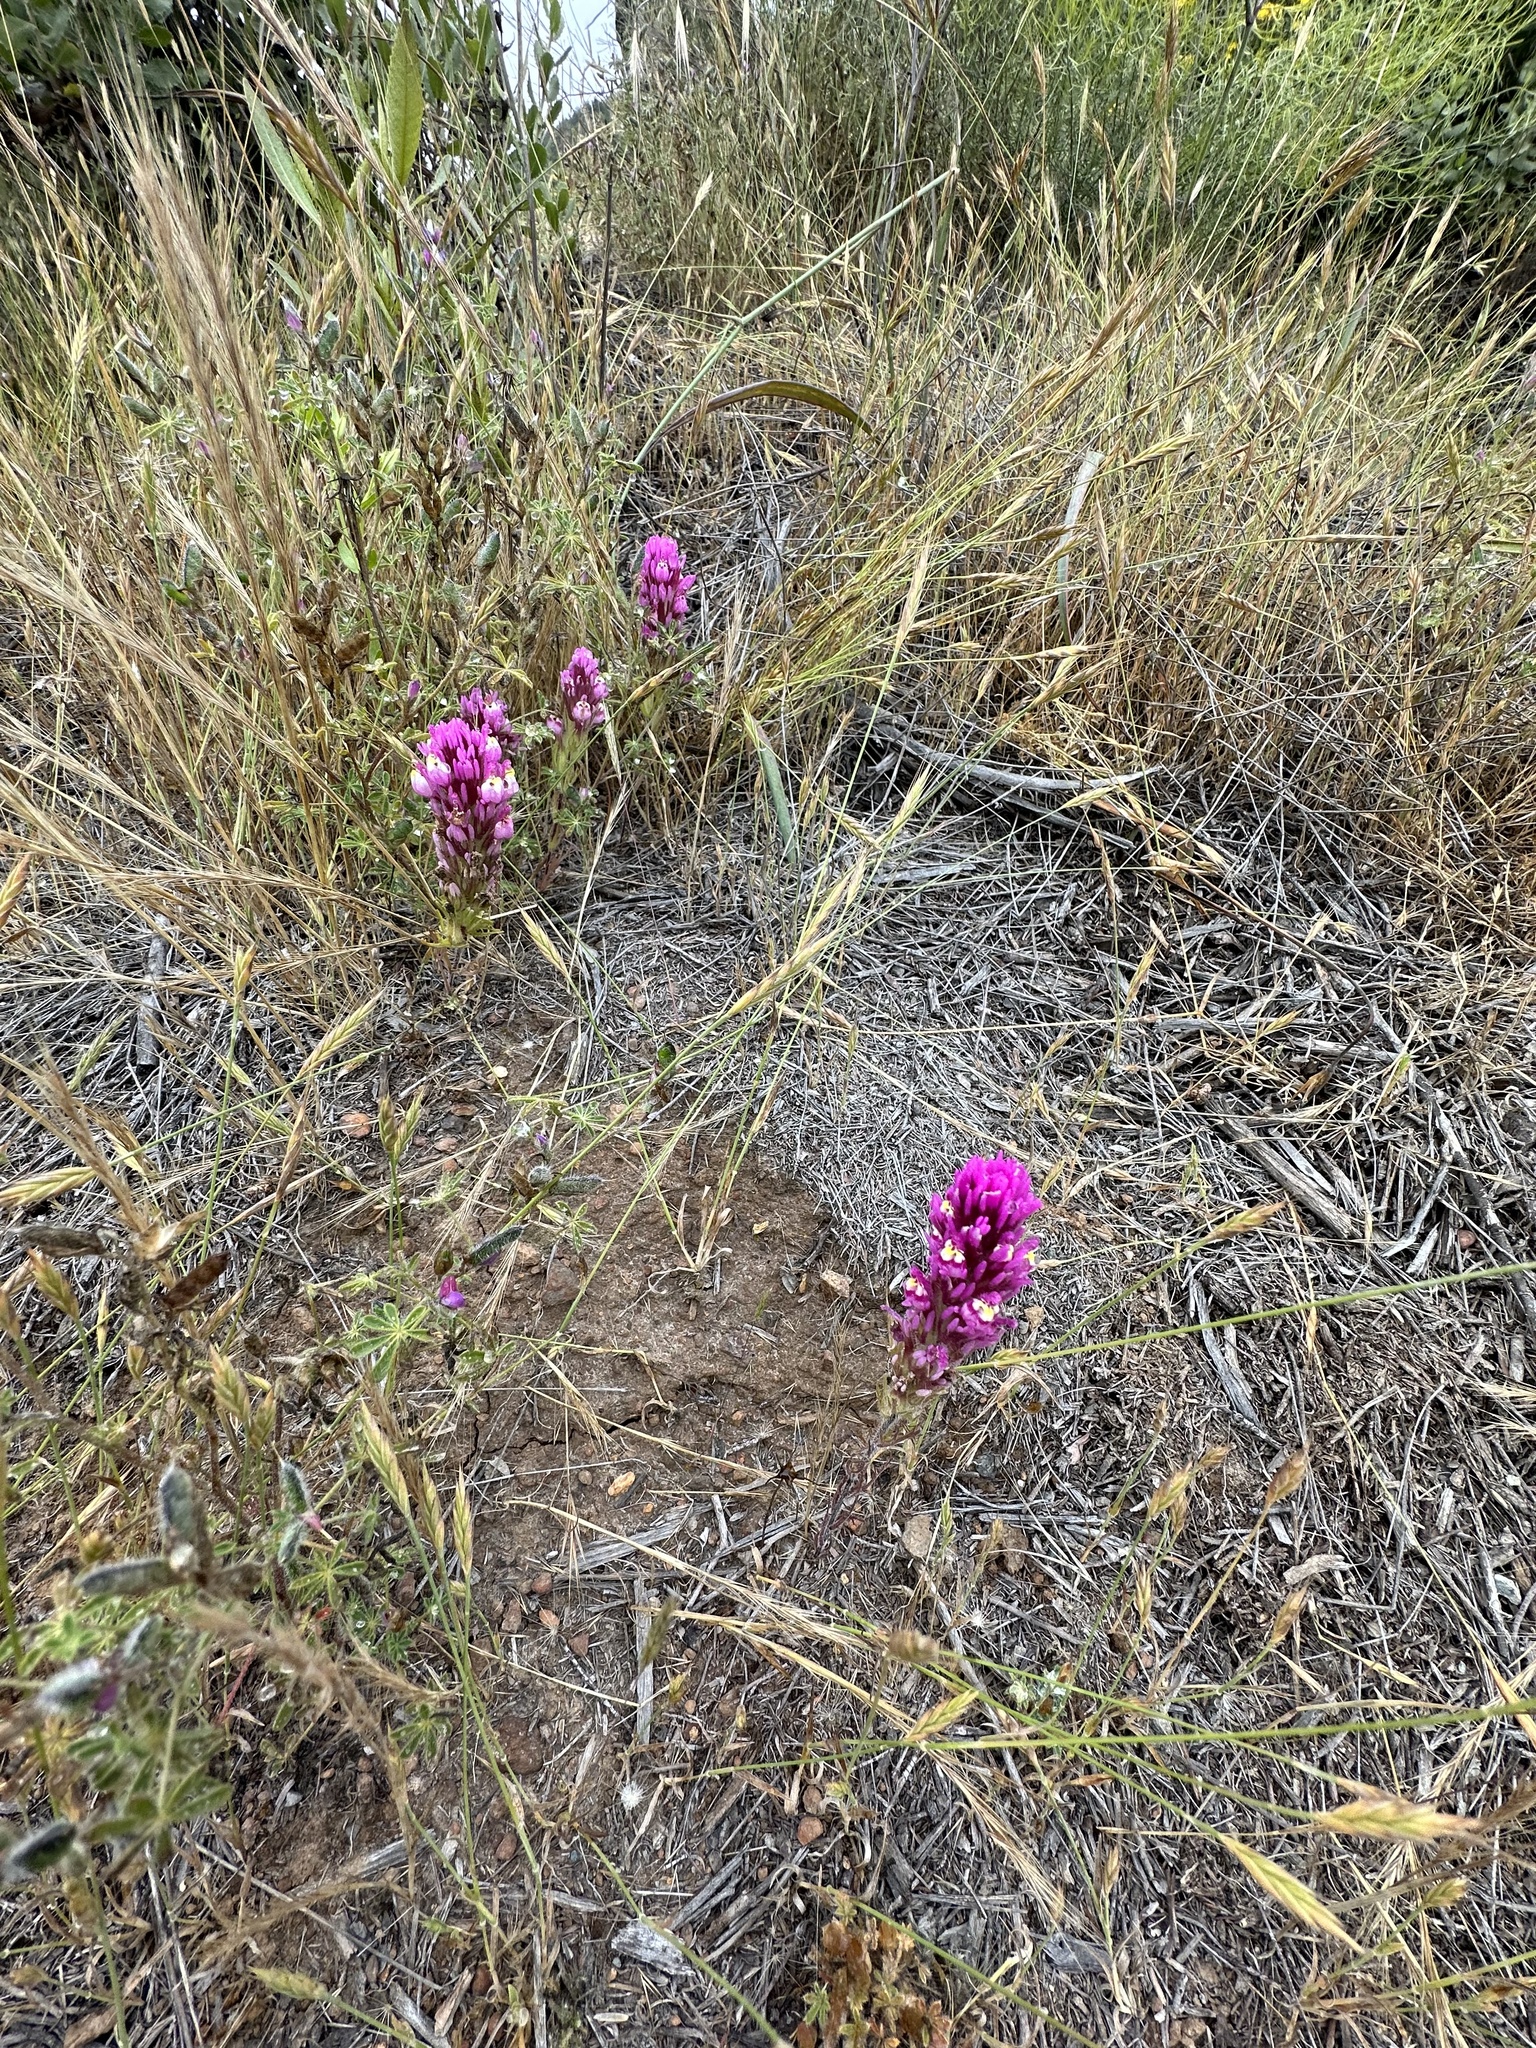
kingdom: Plantae
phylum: Tracheophyta
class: Magnoliopsida
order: Lamiales
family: Orobanchaceae
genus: Castilleja
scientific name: Castilleja exserta
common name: Purple owl-clover
